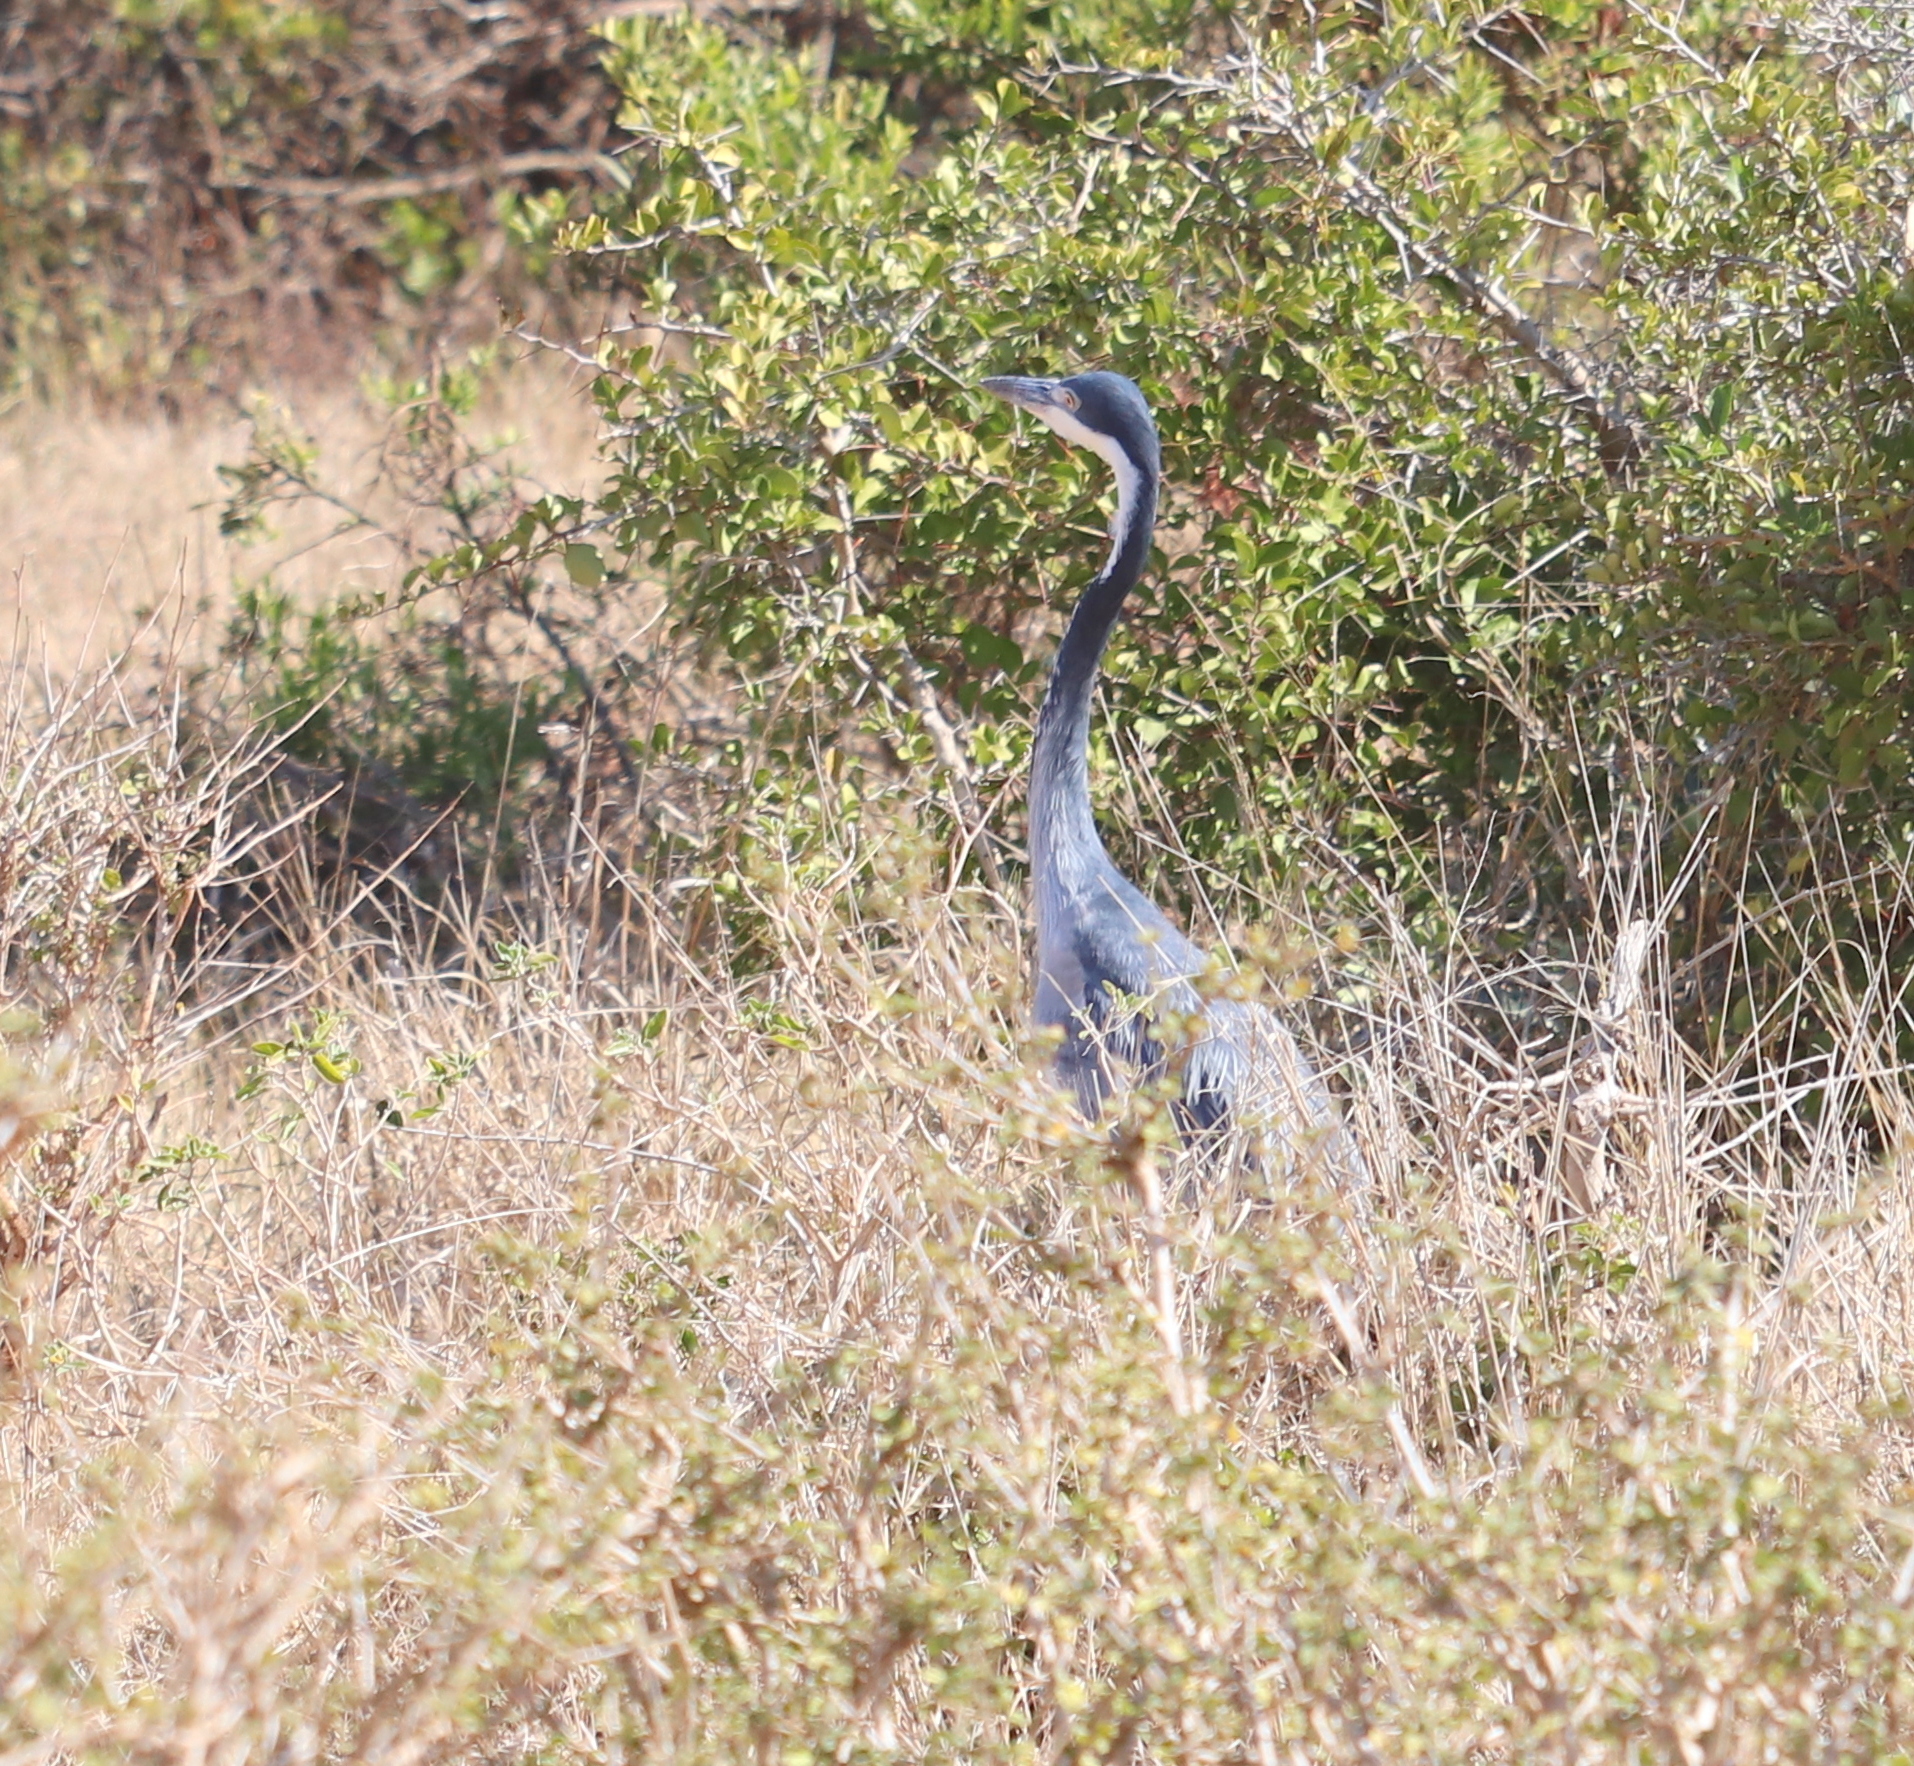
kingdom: Animalia
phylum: Chordata
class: Aves
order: Pelecaniformes
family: Ardeidae
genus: Ardea
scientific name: Ardea melanocephala
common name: Black-headed heron
